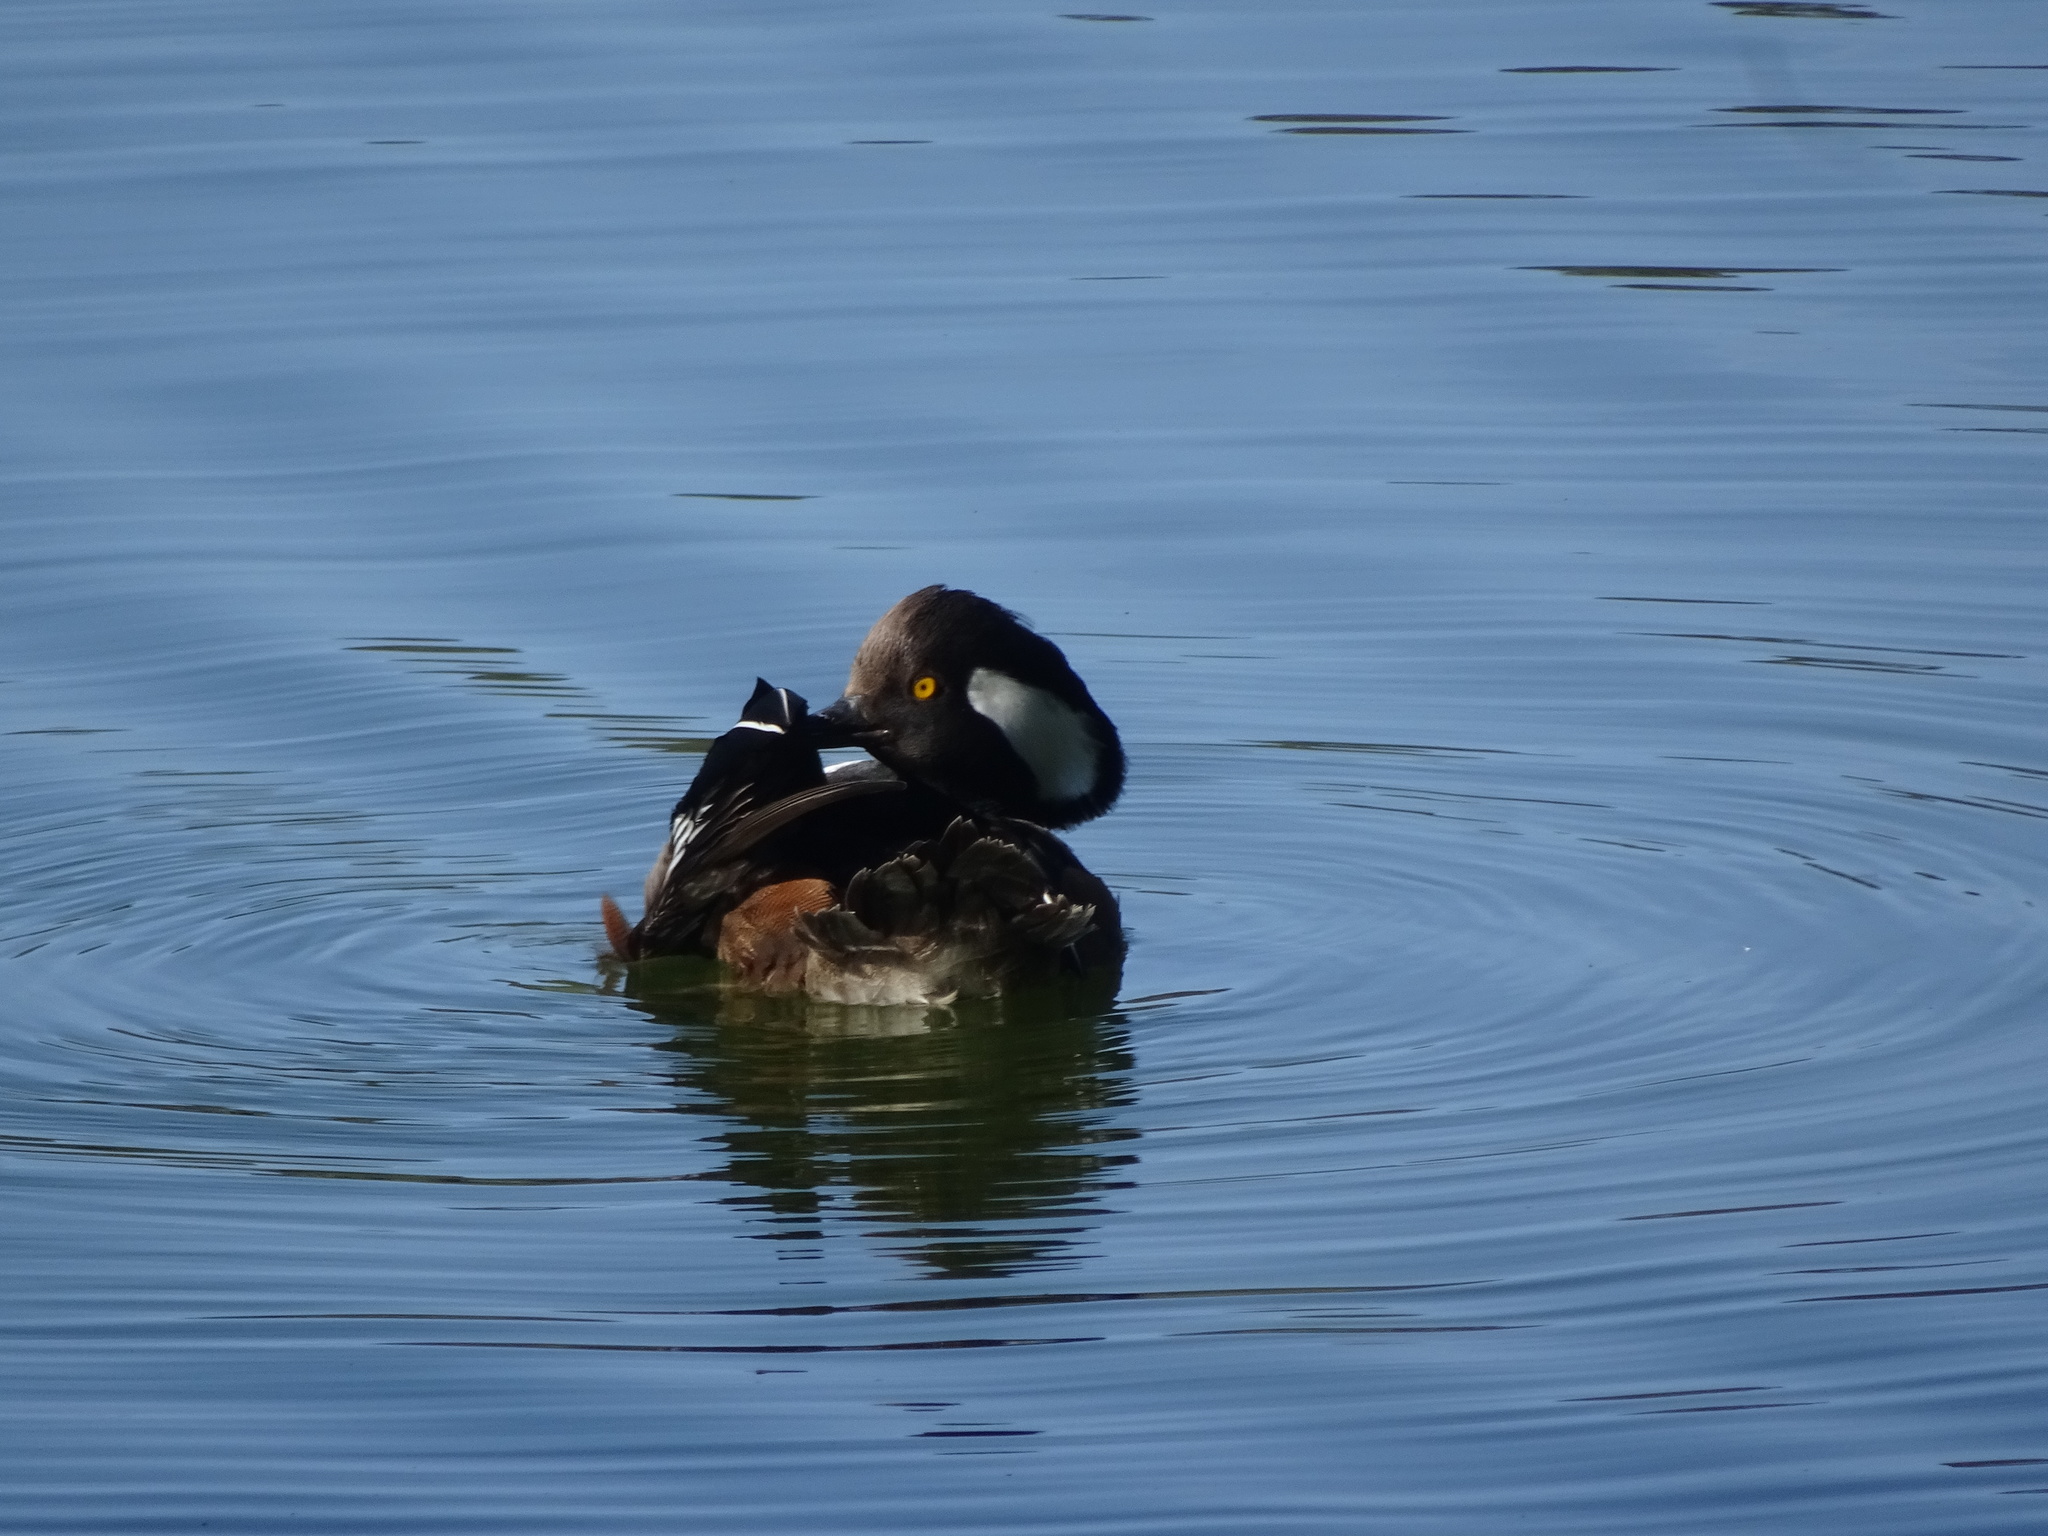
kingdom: Animalia
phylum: Chordata
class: Aves
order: Anseriformes
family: Anatidae
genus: Lophodytes
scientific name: Lophodytes cucullatus
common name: Hooded merganser
